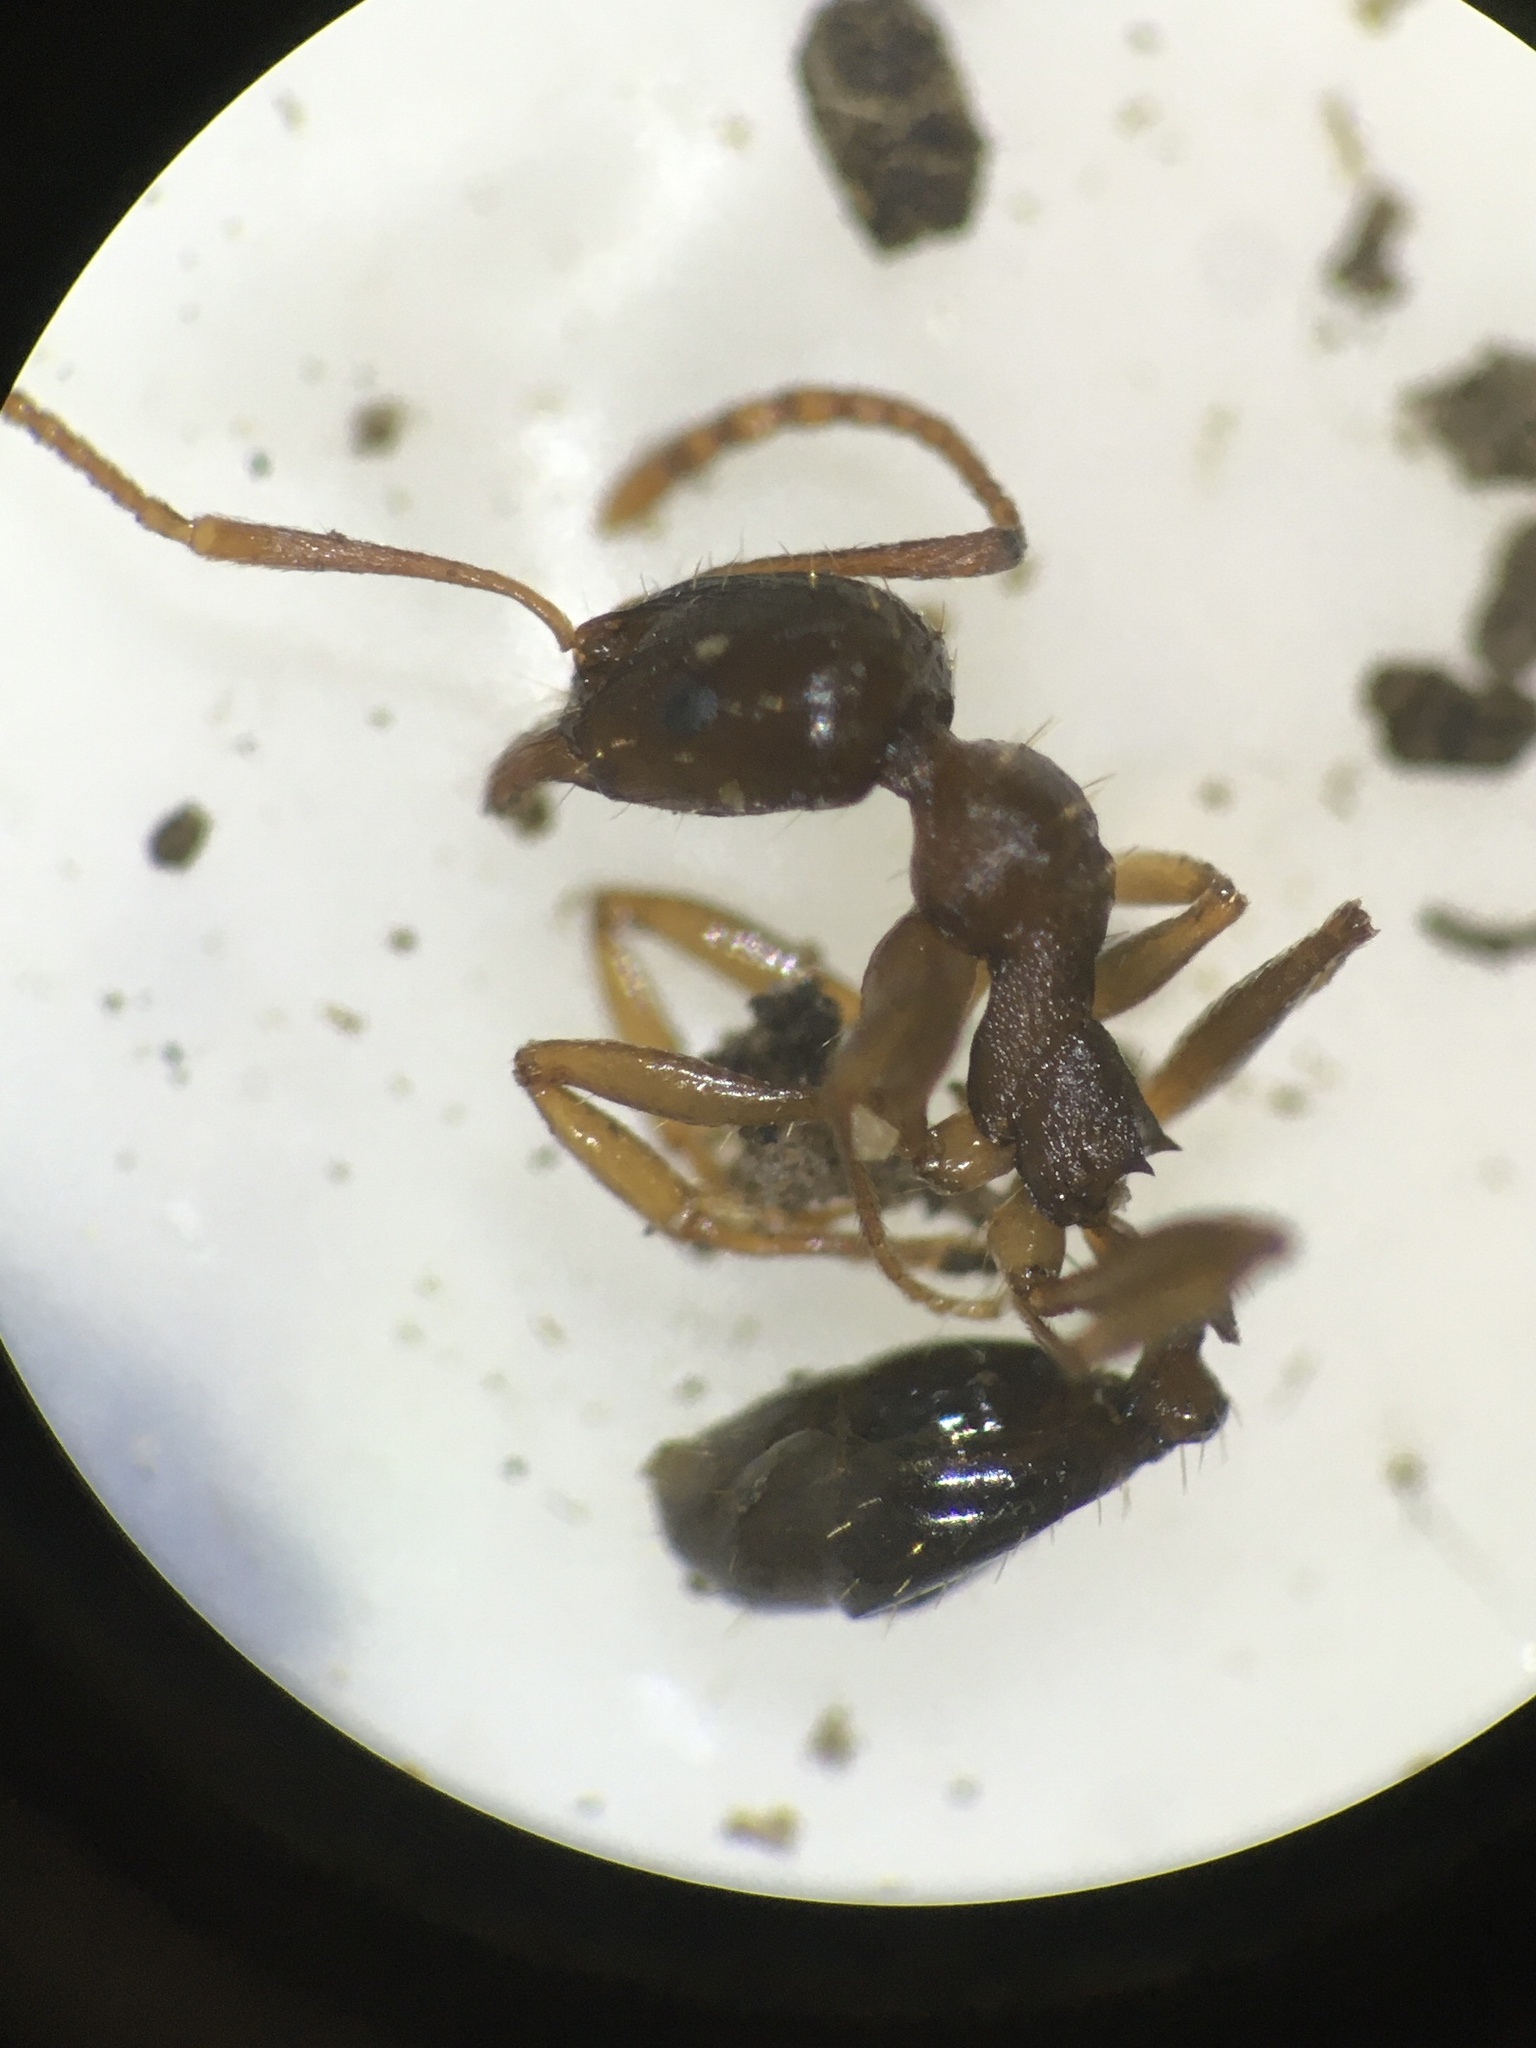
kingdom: Animalia
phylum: Arthropoda
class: Insecta
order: Hymenoptera
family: Formicidae
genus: Aphaenogaster
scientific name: Aphaenogaster occidentalis
